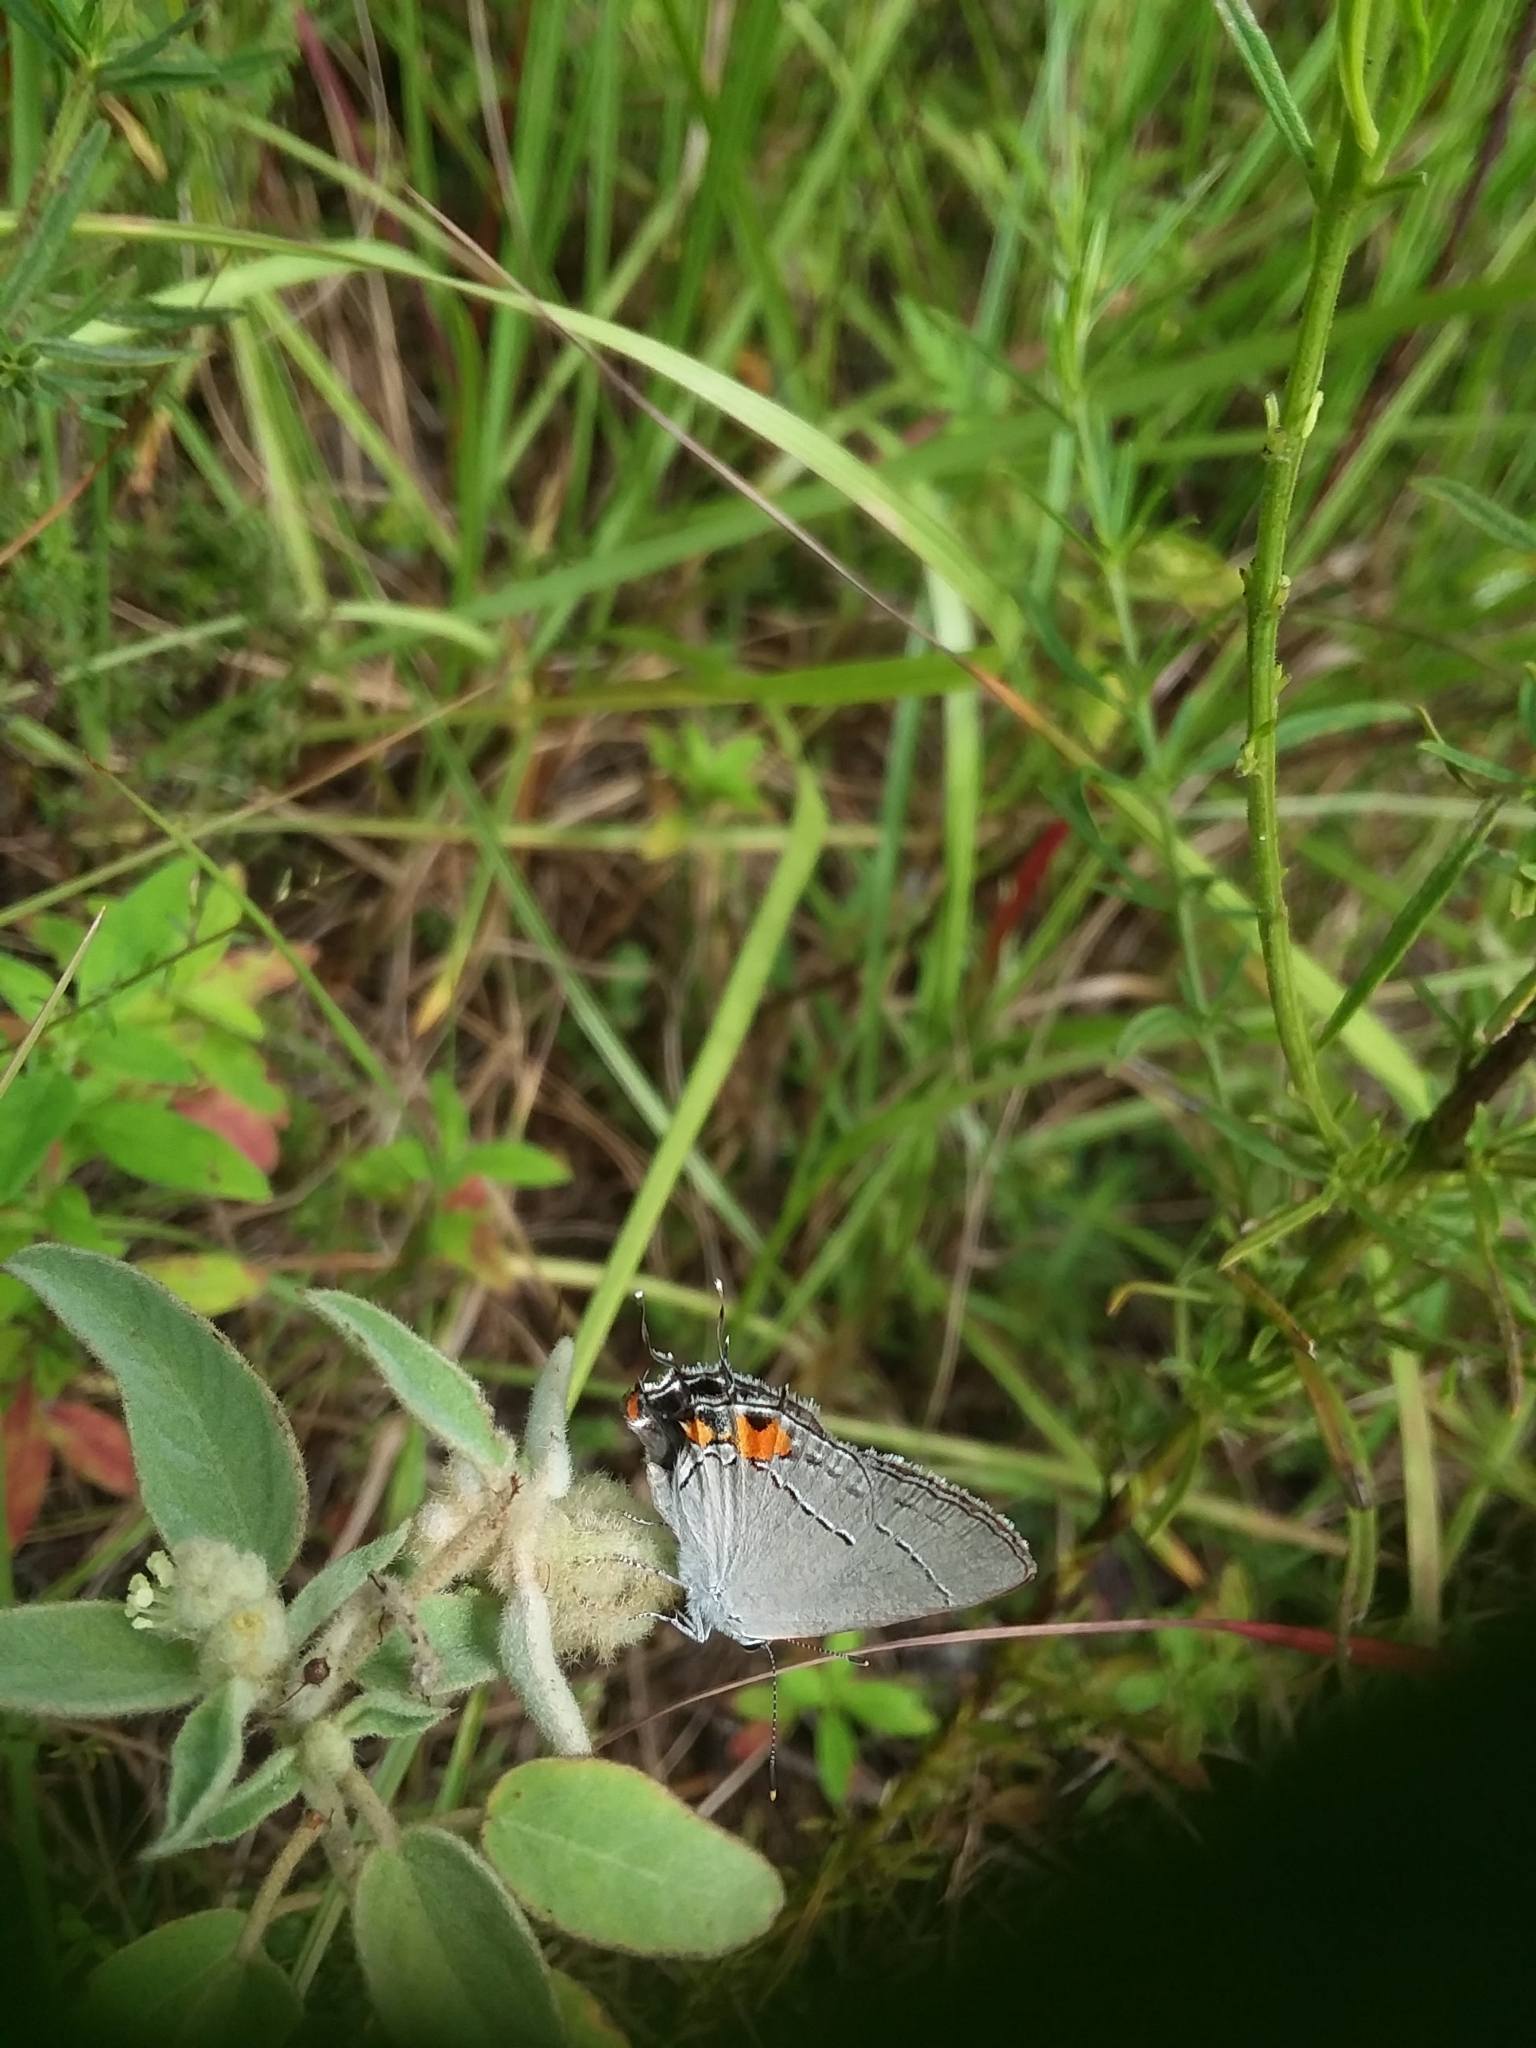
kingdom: Animalia
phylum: Arthropoda
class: Insecta
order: Lepidoptera
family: Lycaenidae
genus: Strymon
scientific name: Strymon melinus
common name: Gray hairstreak
